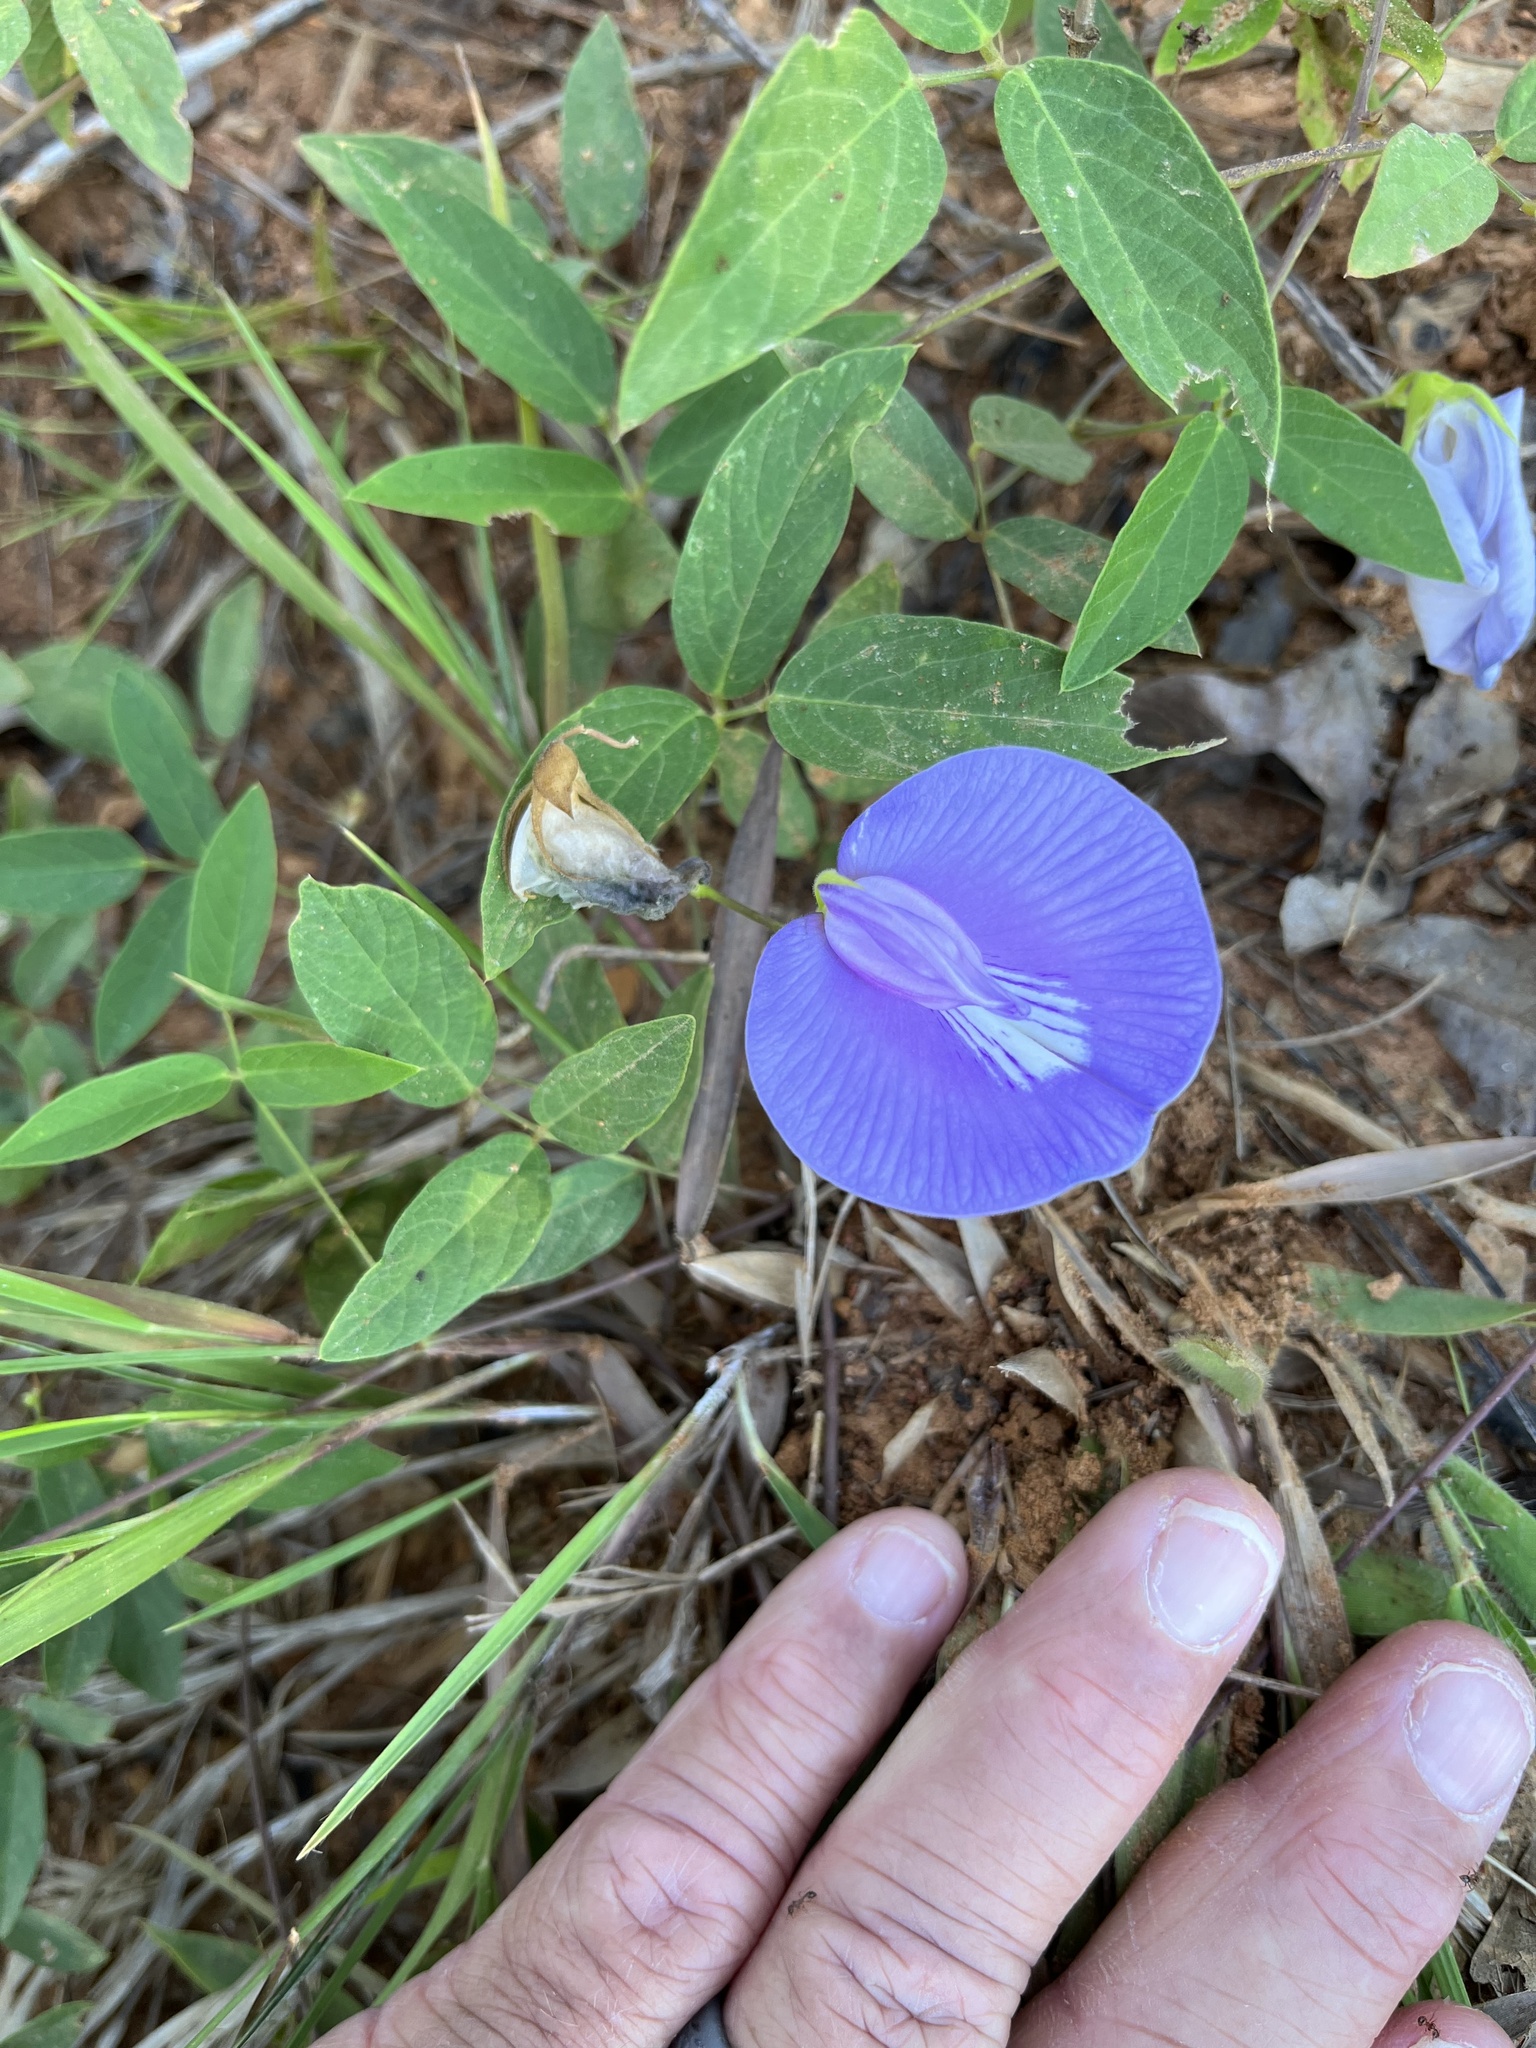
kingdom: Plantae
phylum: Tracheophyta
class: Magnoliopsida
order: Fabales
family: Fabaceae
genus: Centrosema
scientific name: Centrosema virginianum
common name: Butterfly-pea
